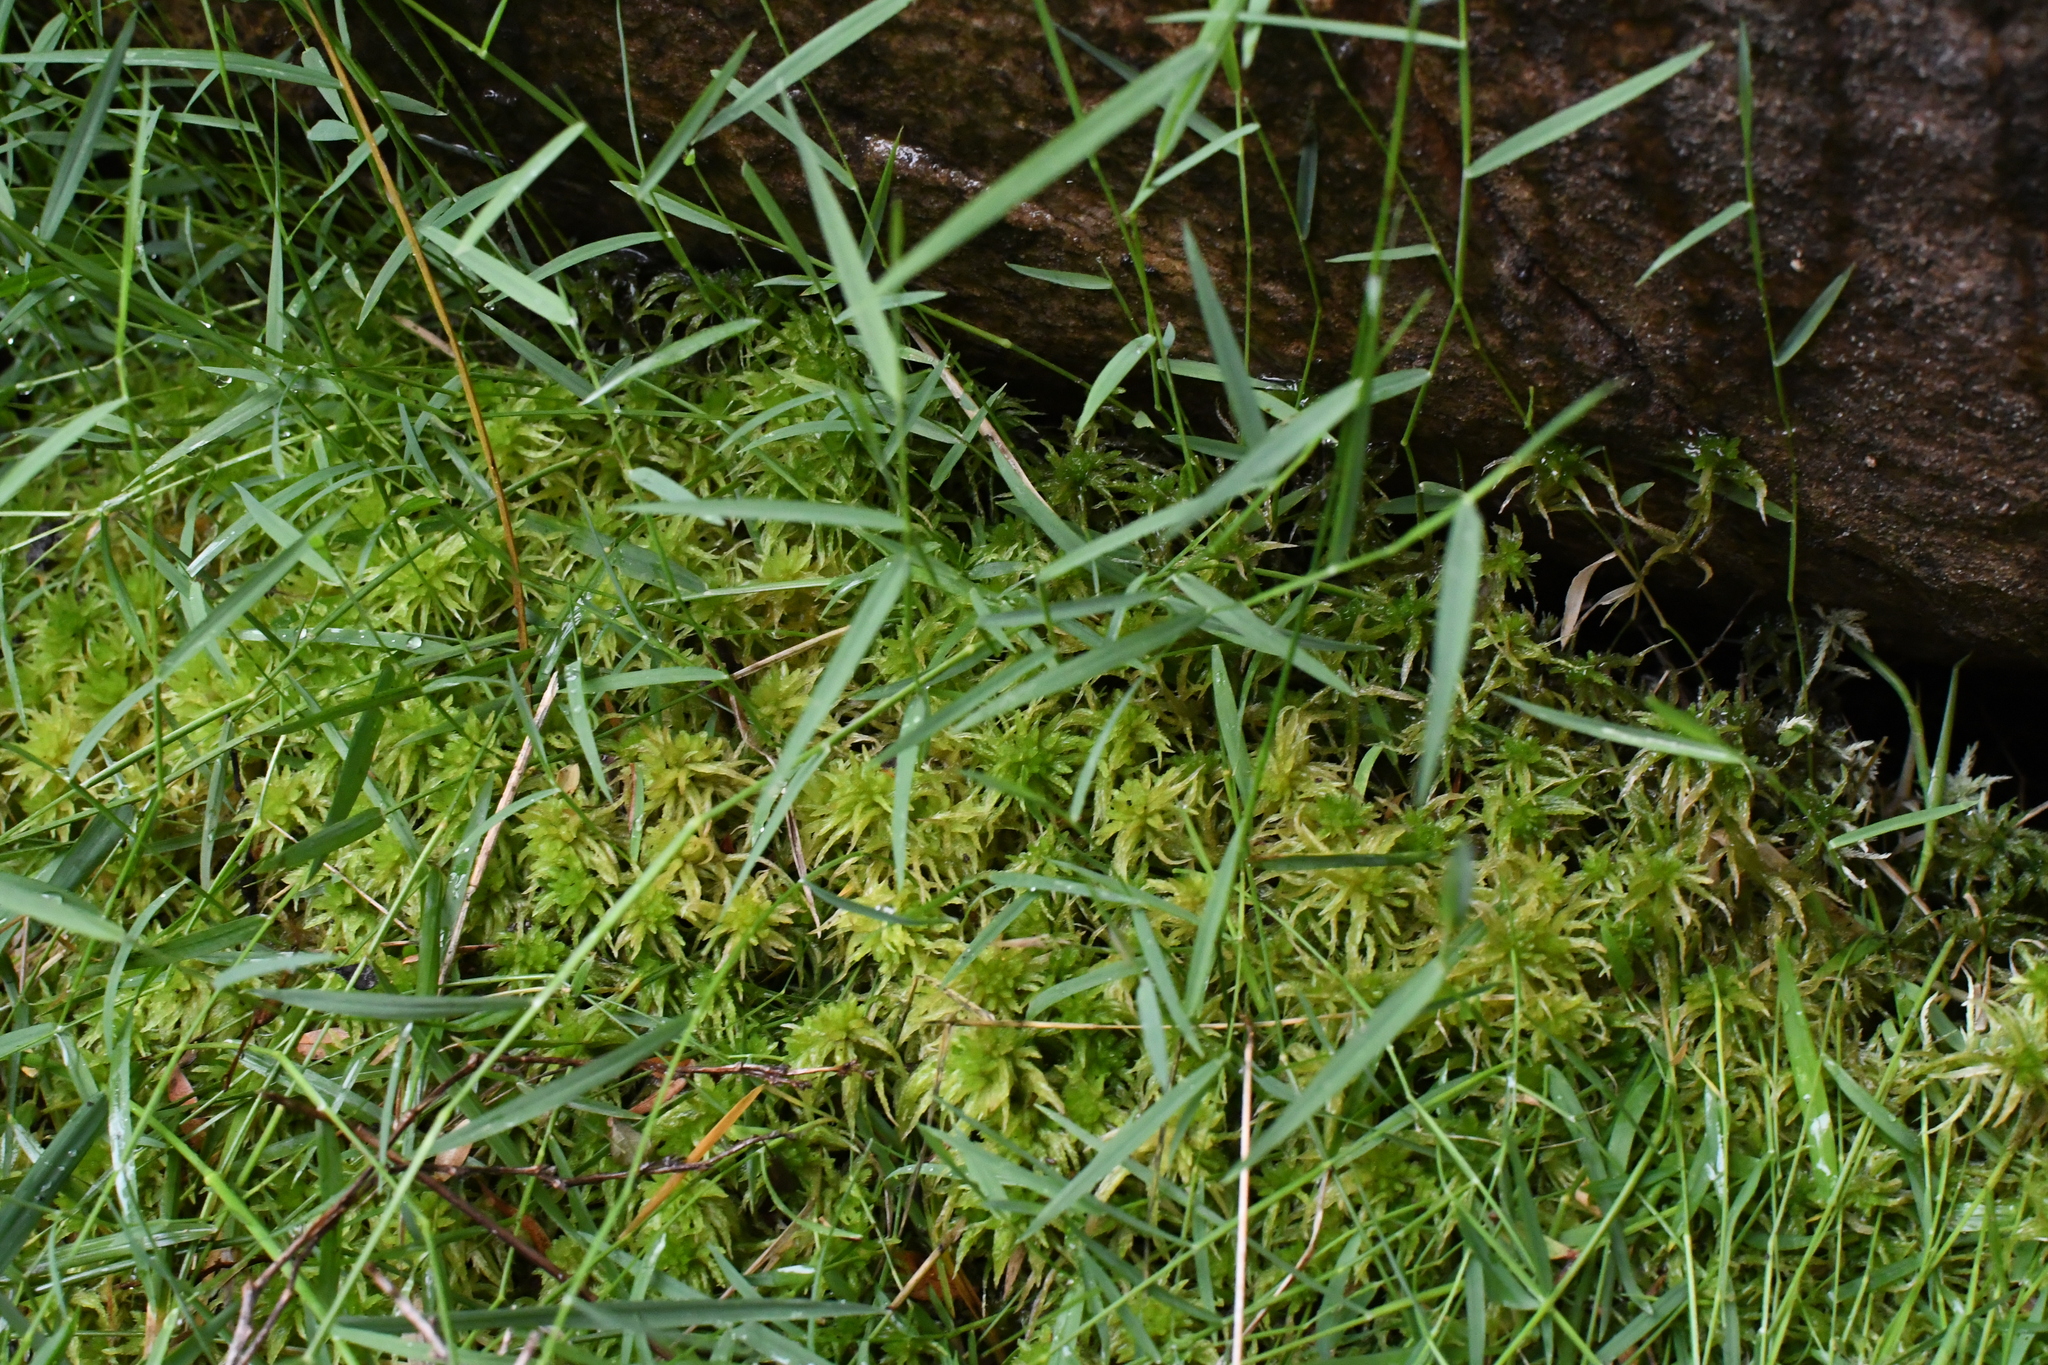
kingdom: Plantae
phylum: Bryophyta
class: Sphagnopsida
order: Sphagnales
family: Sphagnaceae
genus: Sphagnum
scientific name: Sphagnum novozelandicum
